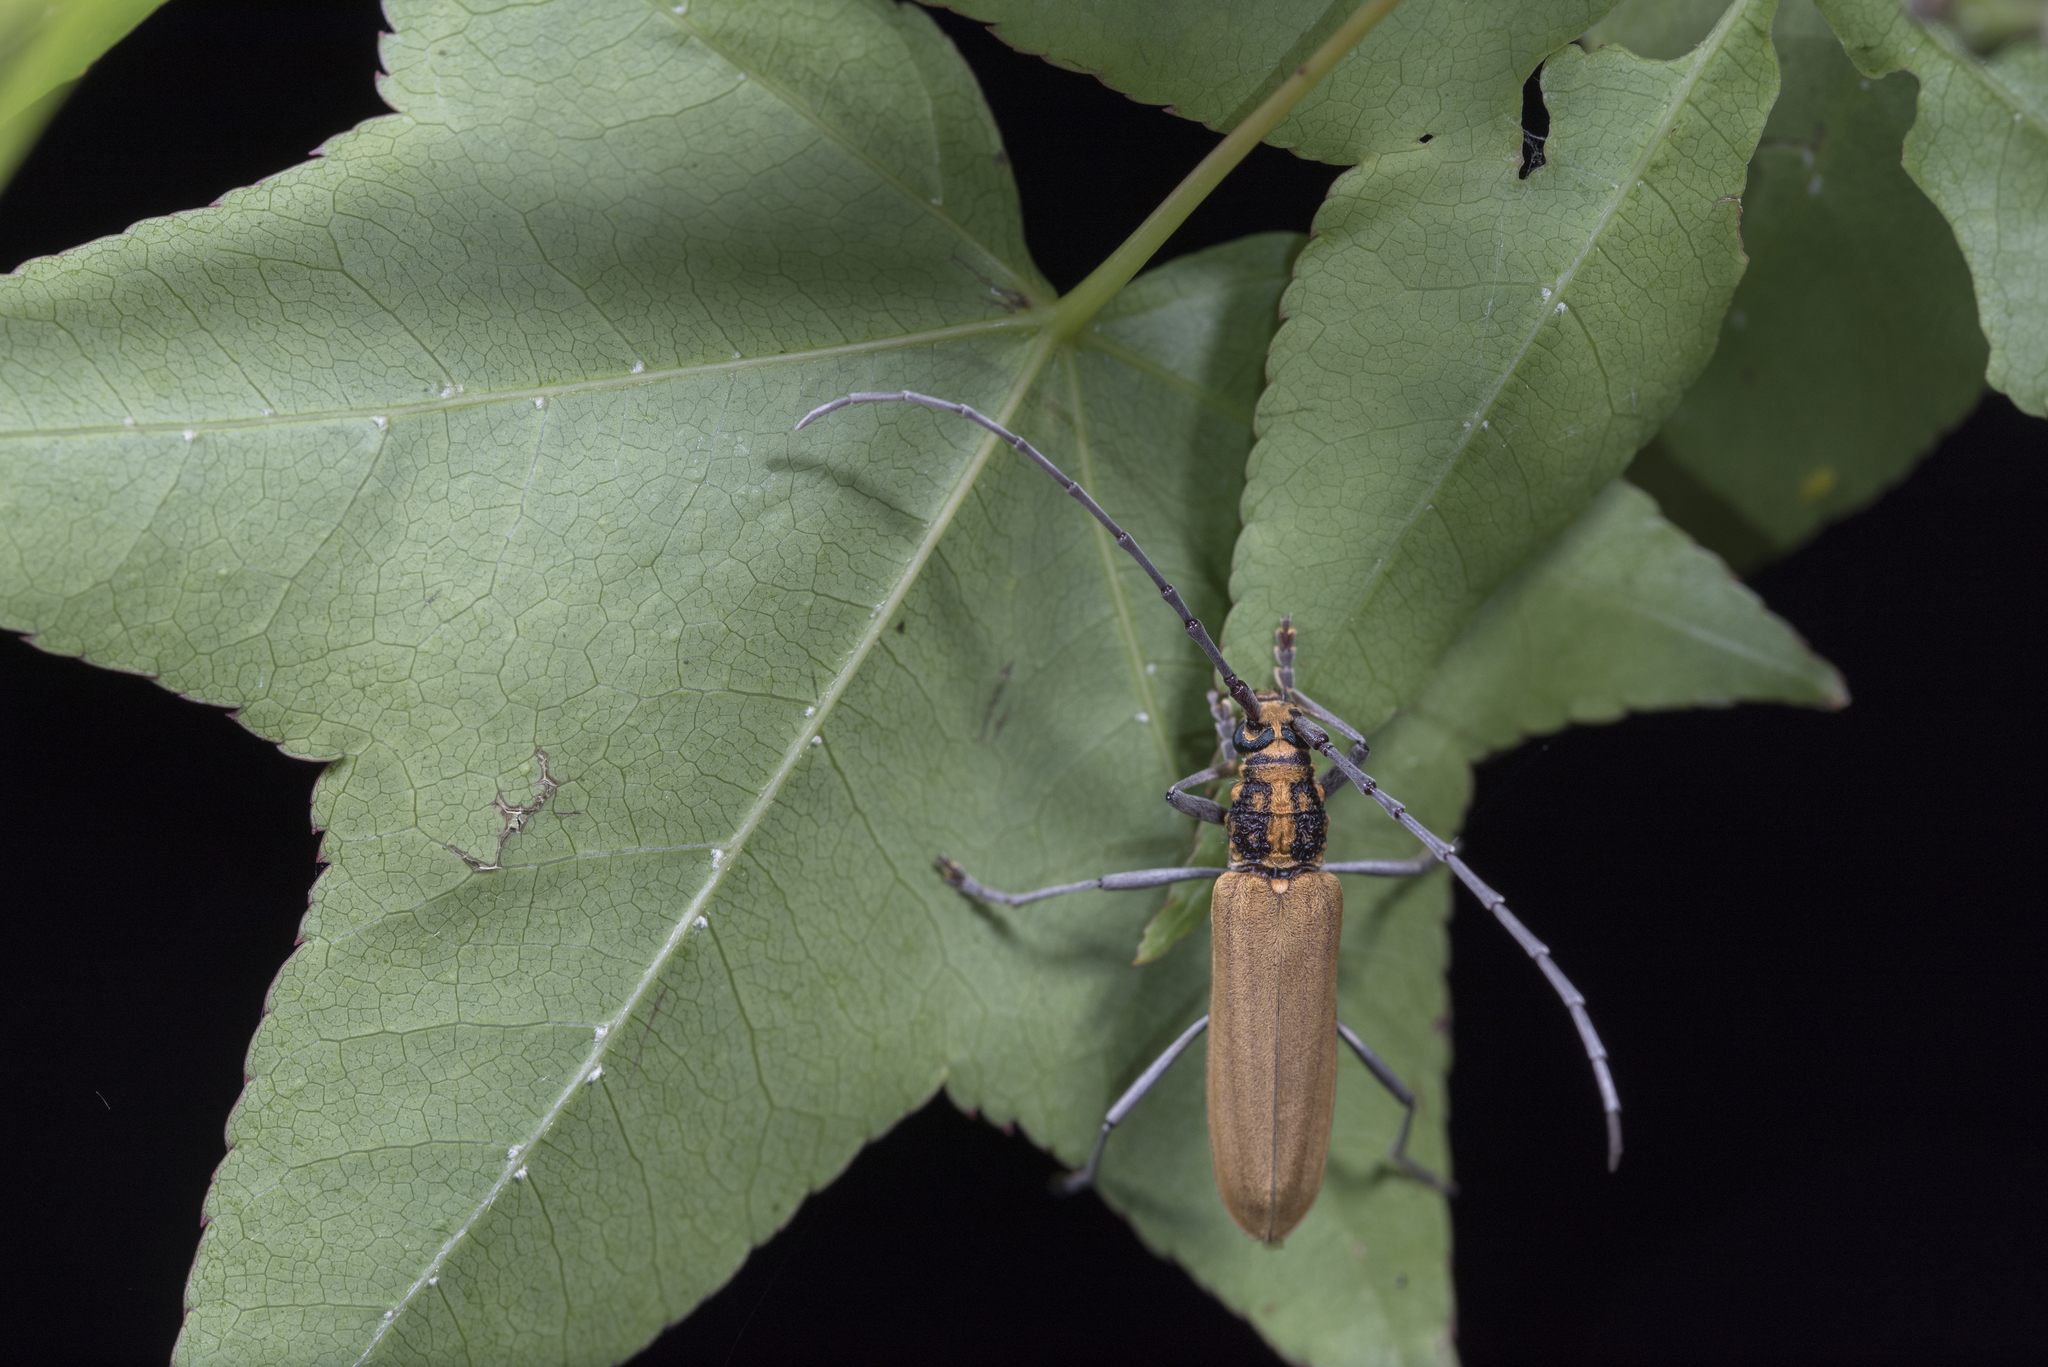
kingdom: Animalia
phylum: Arthropoda
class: Insecta
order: Coleoptera
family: Cerambycidae
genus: Gibbocerambyx
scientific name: Gibbocerambyx maculicollis
